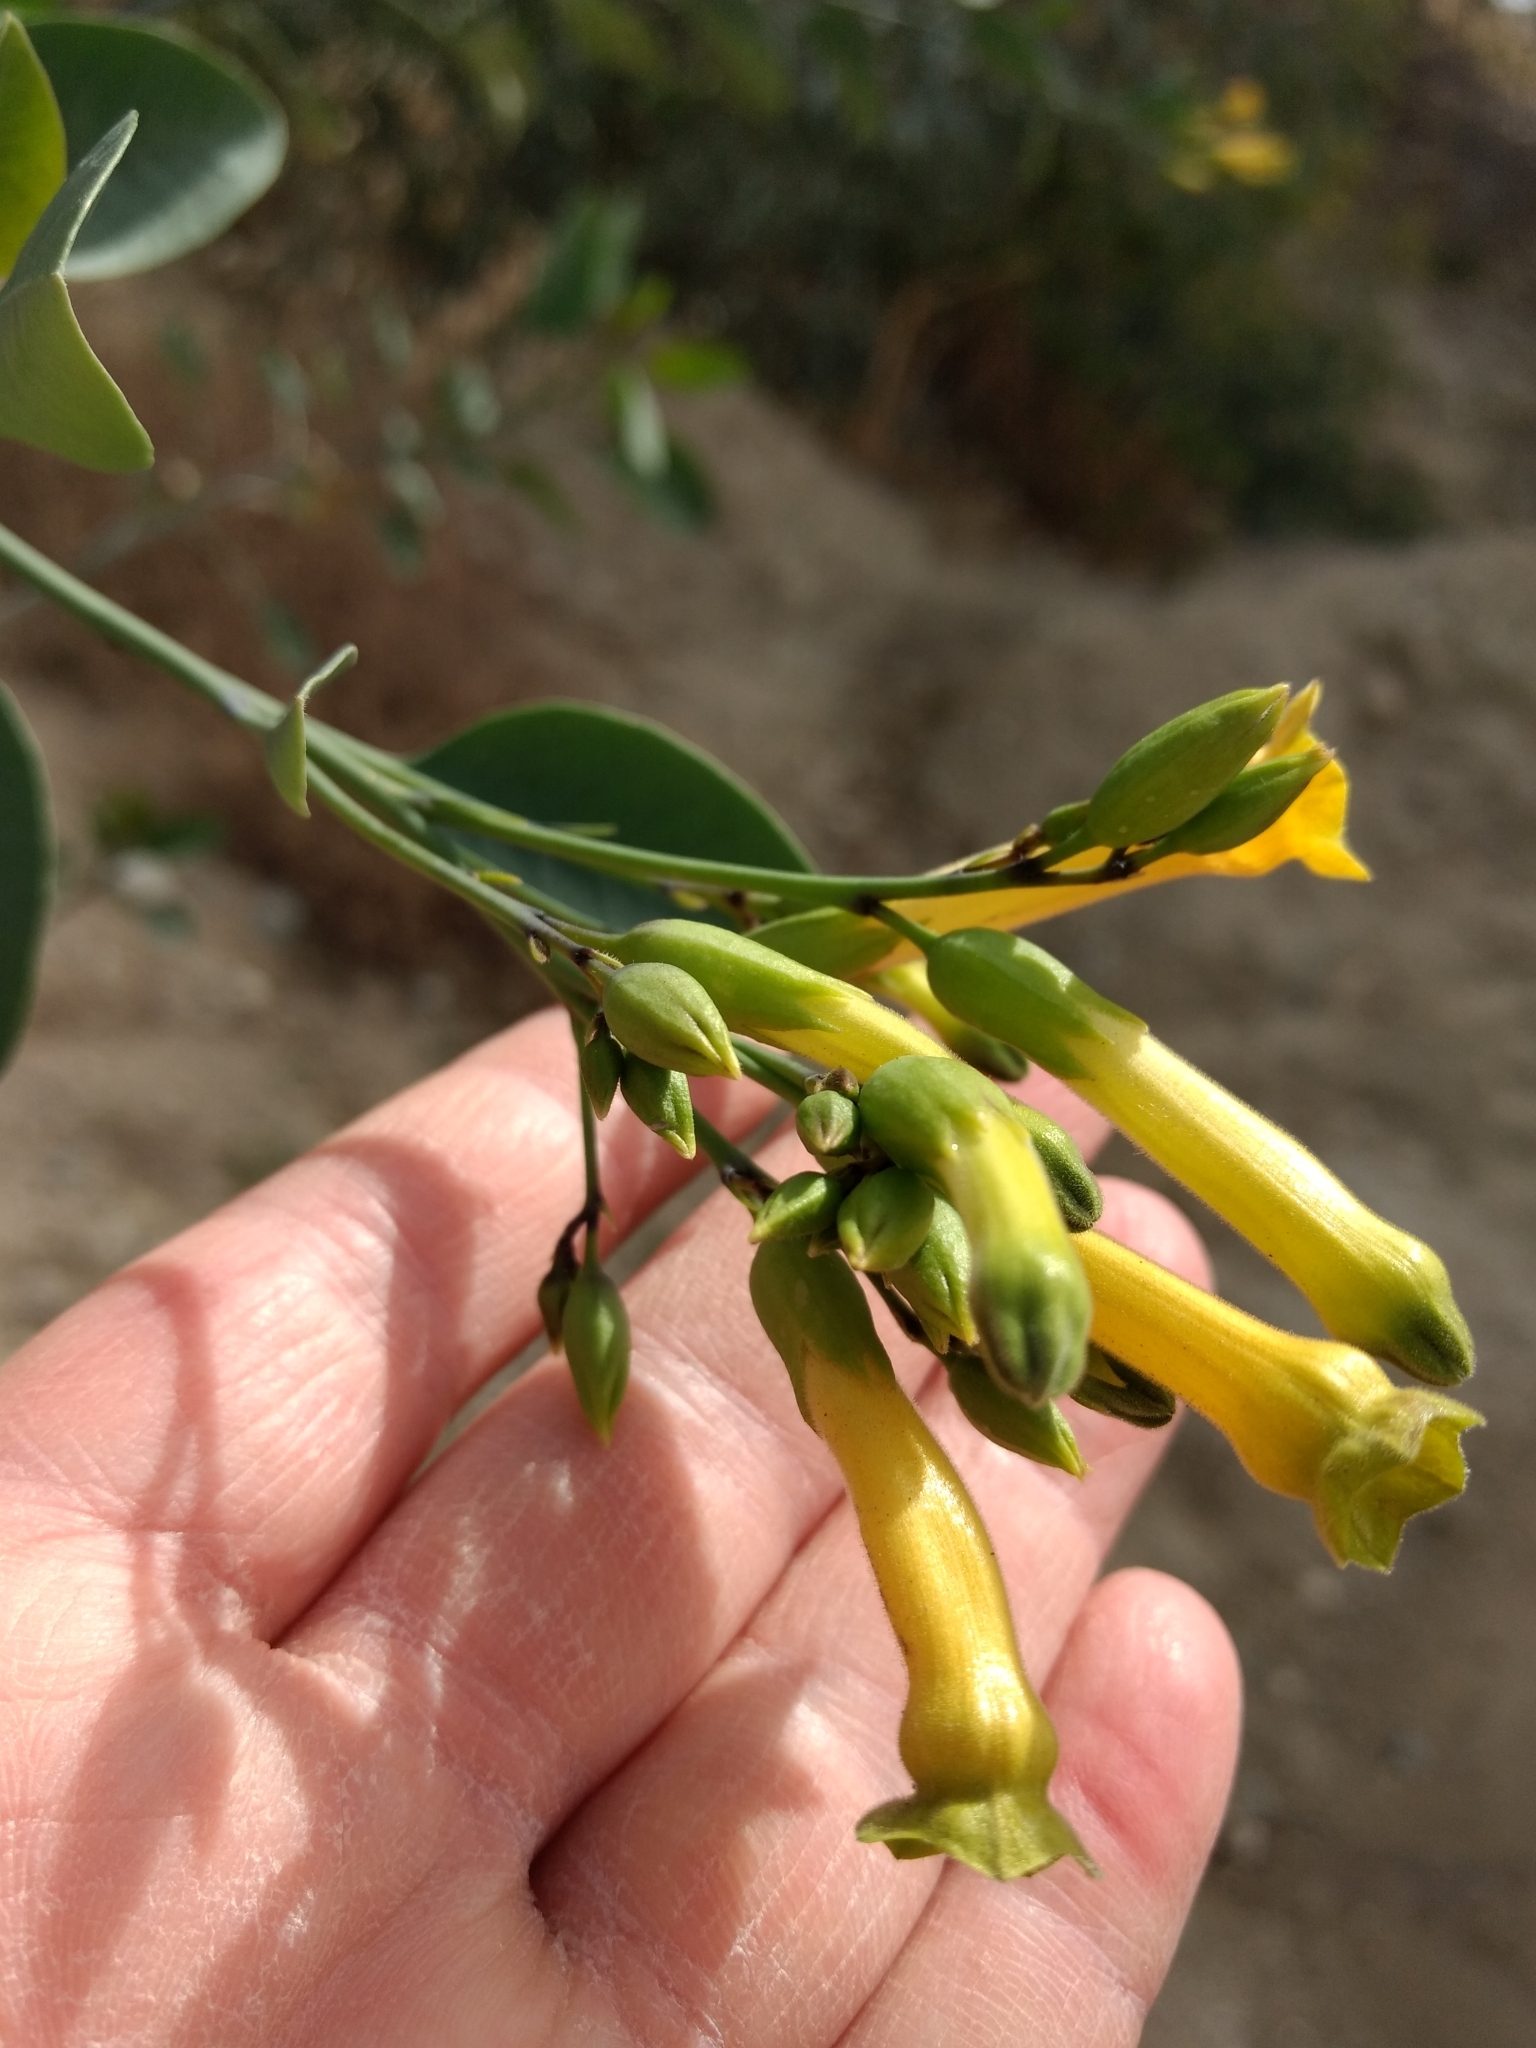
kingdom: Plantae
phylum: Tracheophyta
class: Magnoliopsida
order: Solanales
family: Solanaceae
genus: Nicotiana
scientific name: Nicotiana glauca
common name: Tree tobacco
